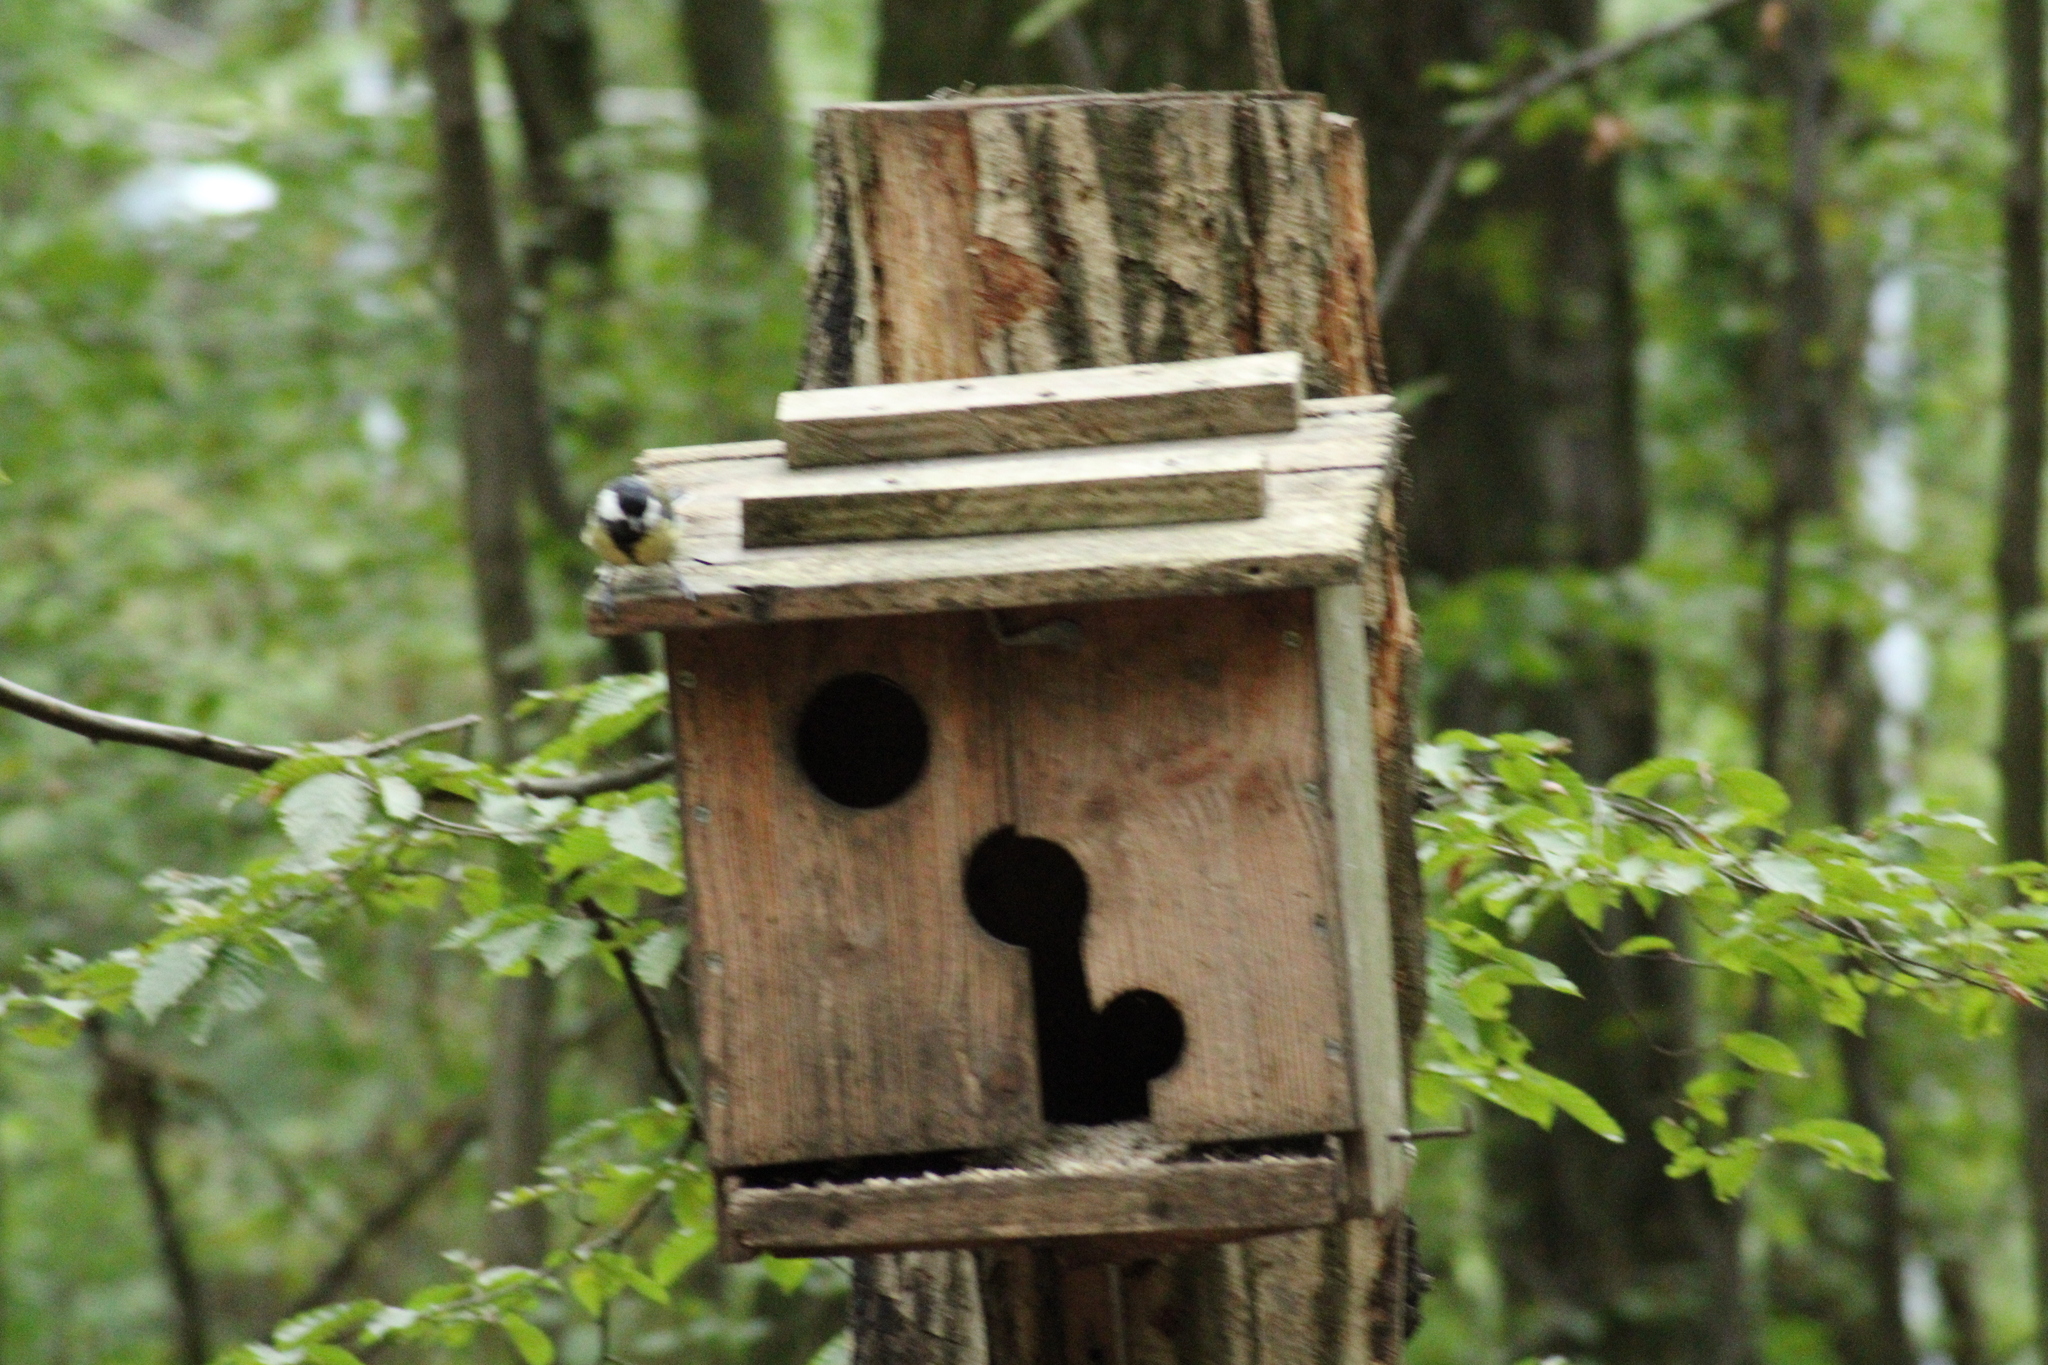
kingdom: Animalia
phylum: Chordata
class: Aves
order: Passeriformes
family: Paridae
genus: Parus
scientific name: Parus major
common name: Great tit
